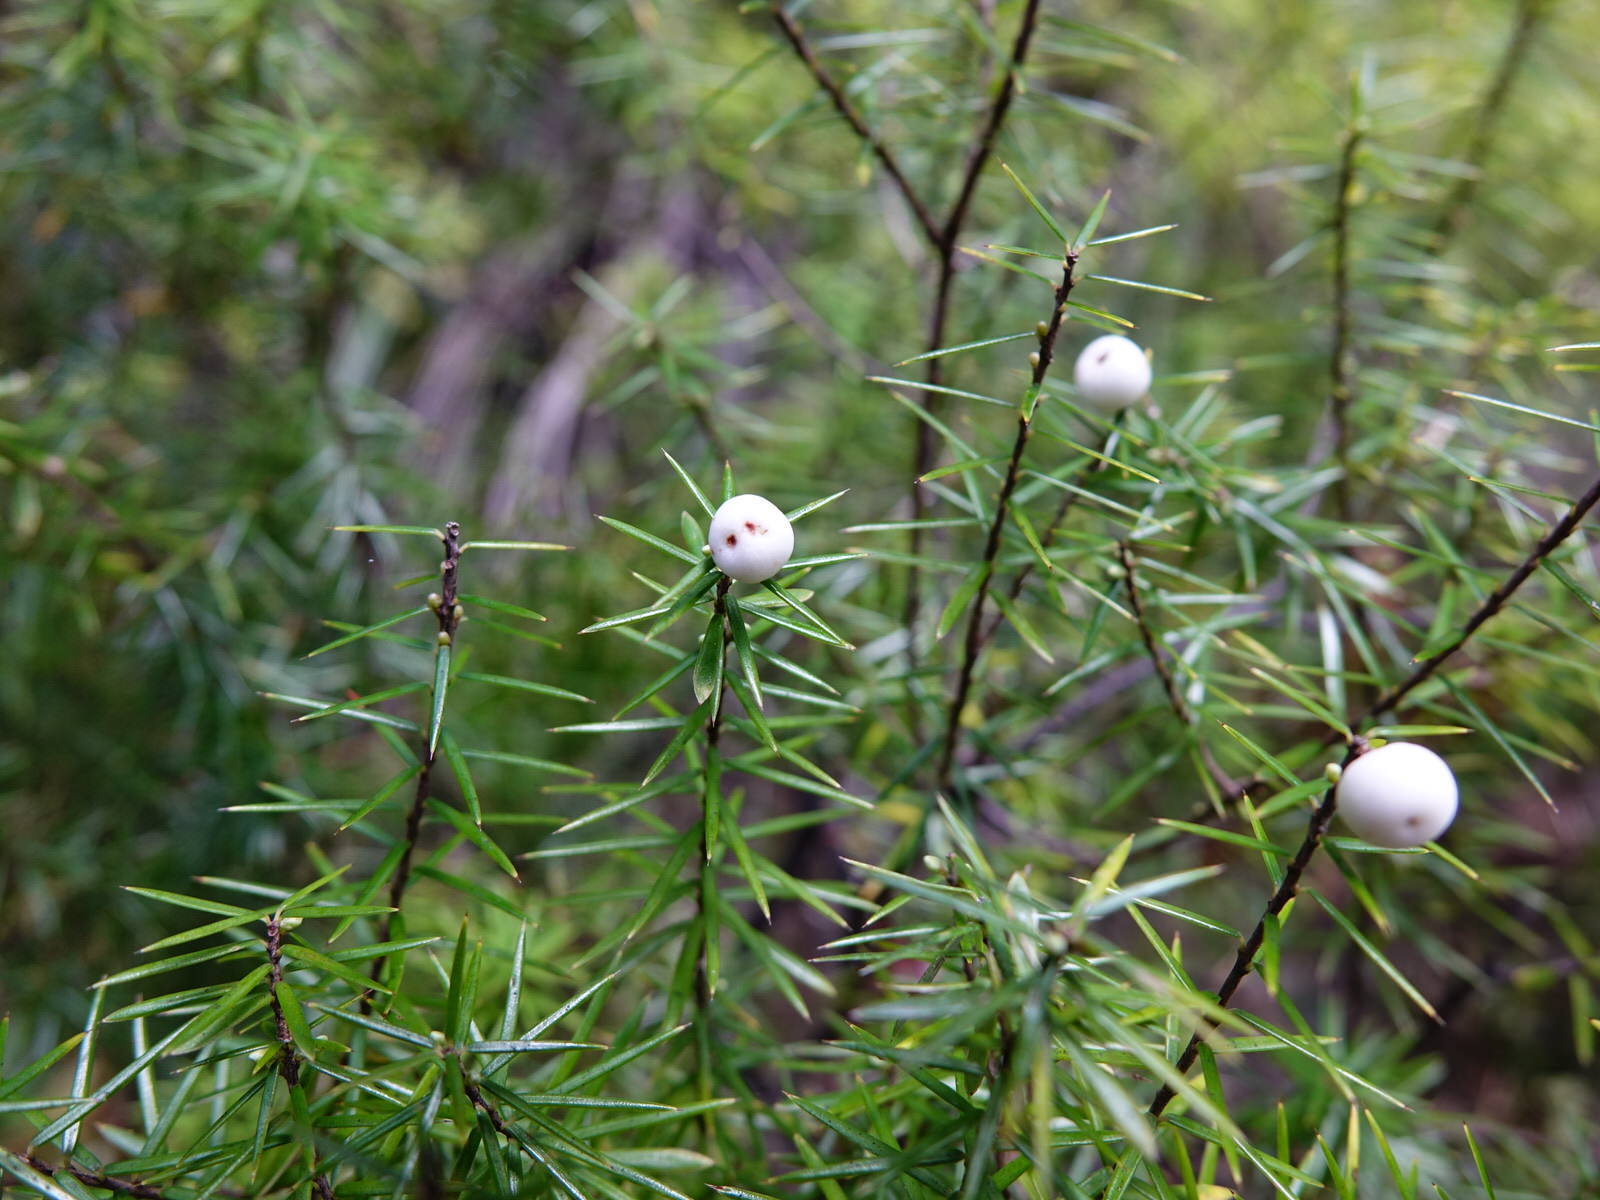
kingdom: Plantae
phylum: Tracheophyta
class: Magnoliopsida
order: Ericales
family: Ericaceae
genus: Leptecophylla
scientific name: Leptecophylla juniperina
